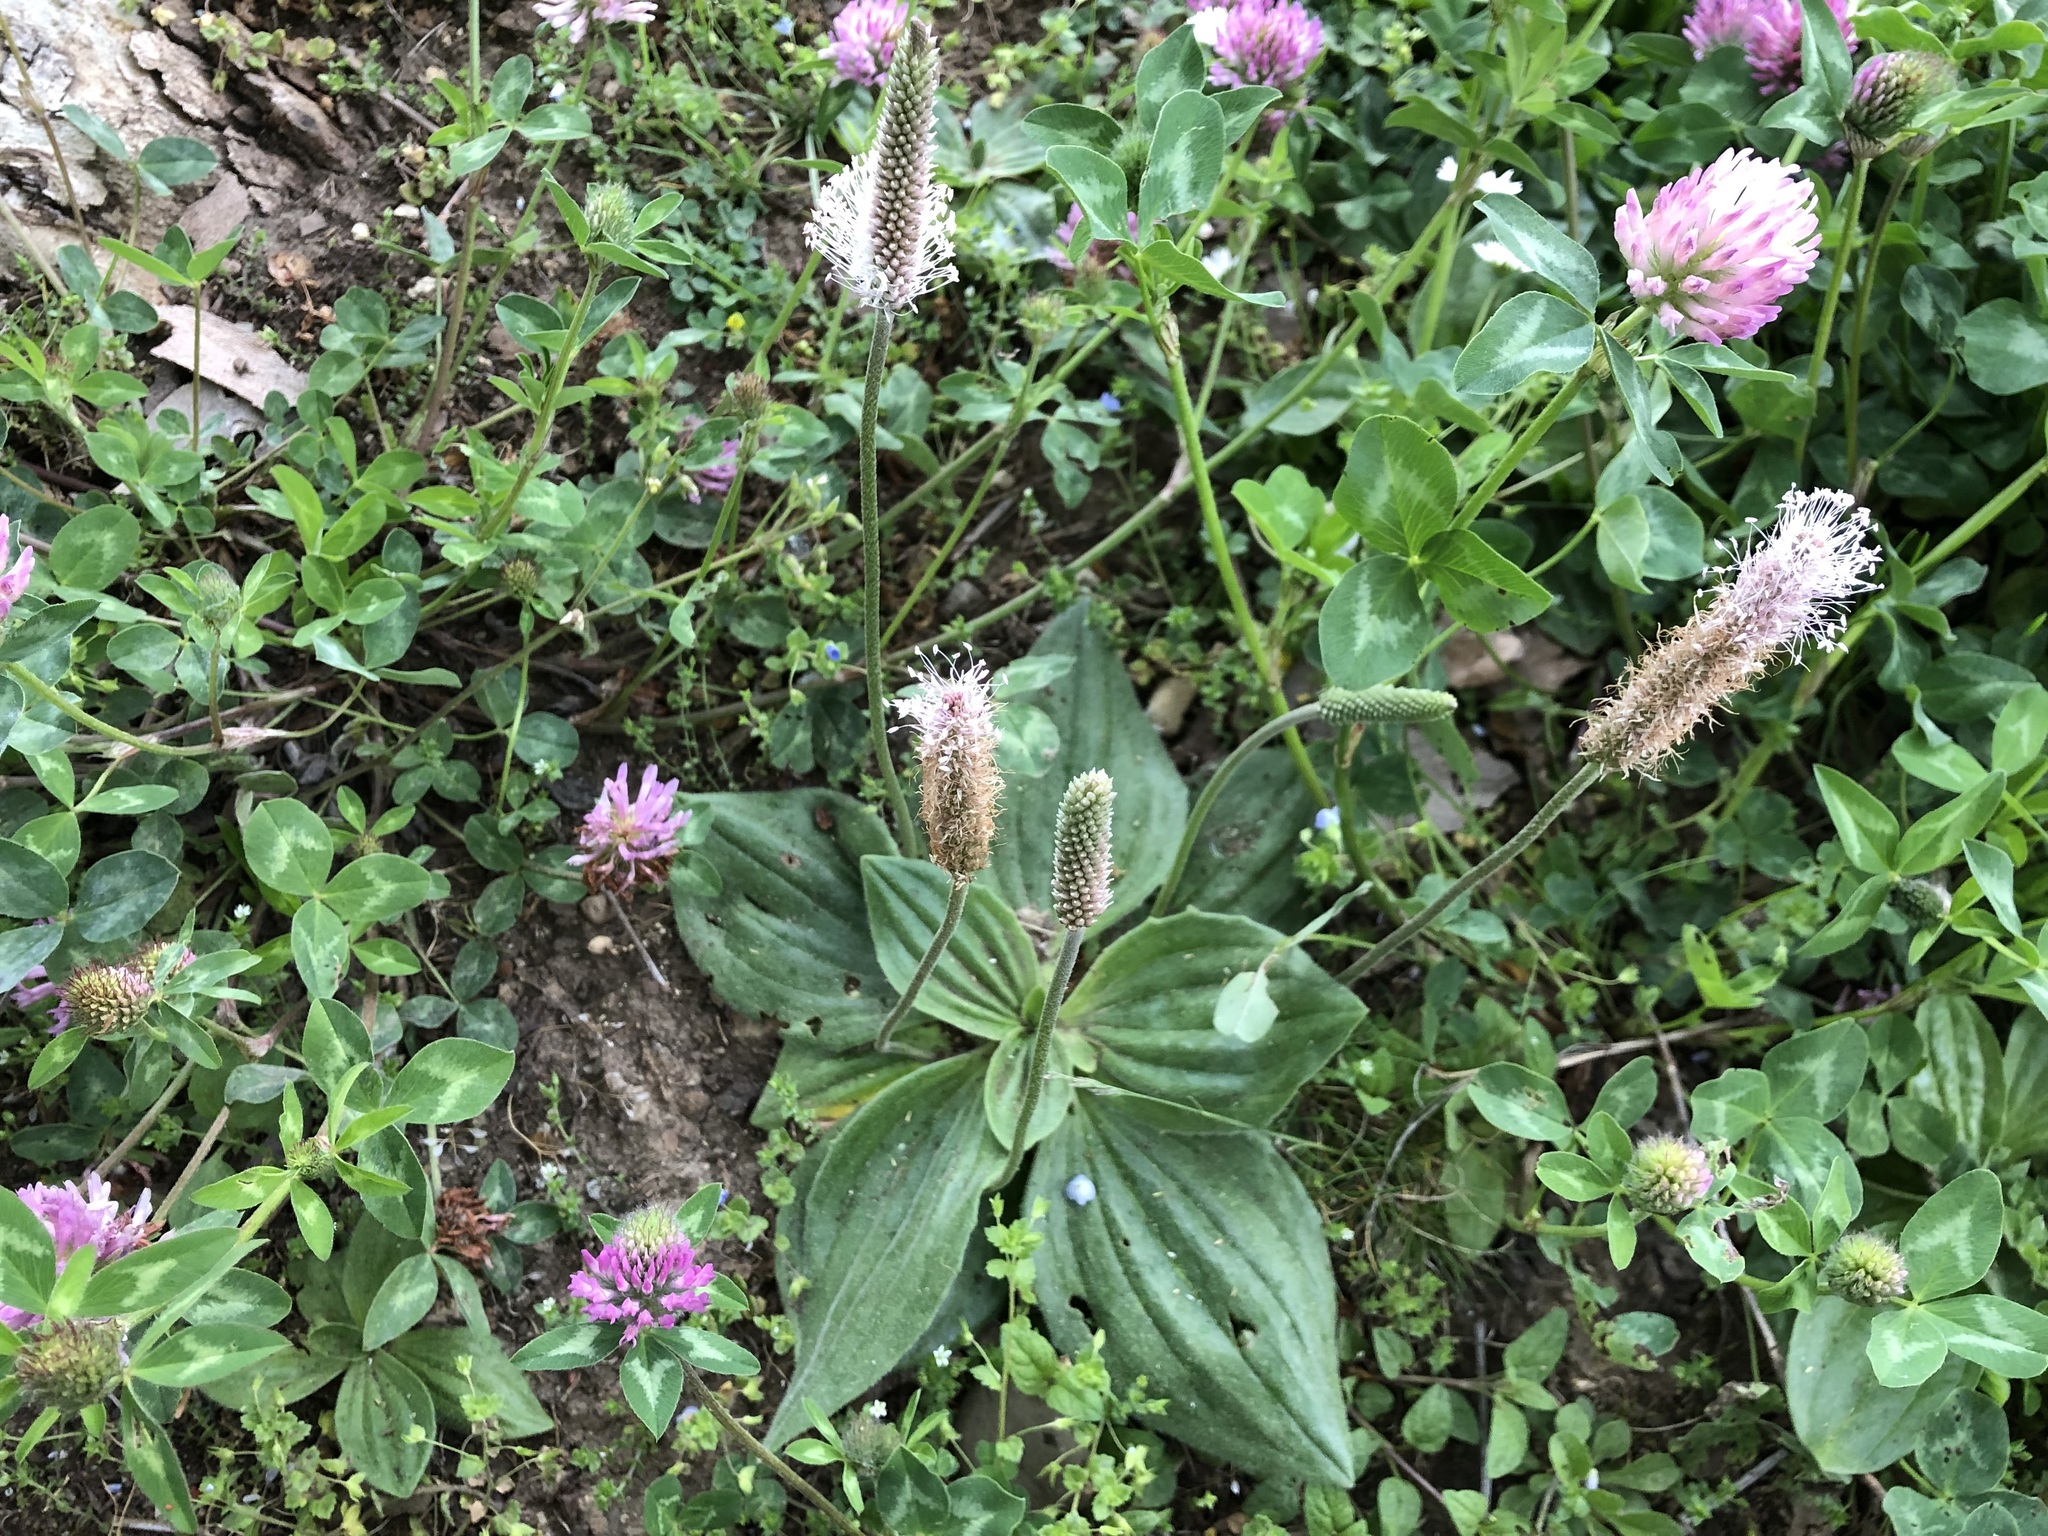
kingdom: Plantae
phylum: Tracheophyta
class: Magnoliopsida
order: Lamiales
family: Plantaginaceae
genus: Plantago
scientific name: Plantago media
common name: Hoary plantain
